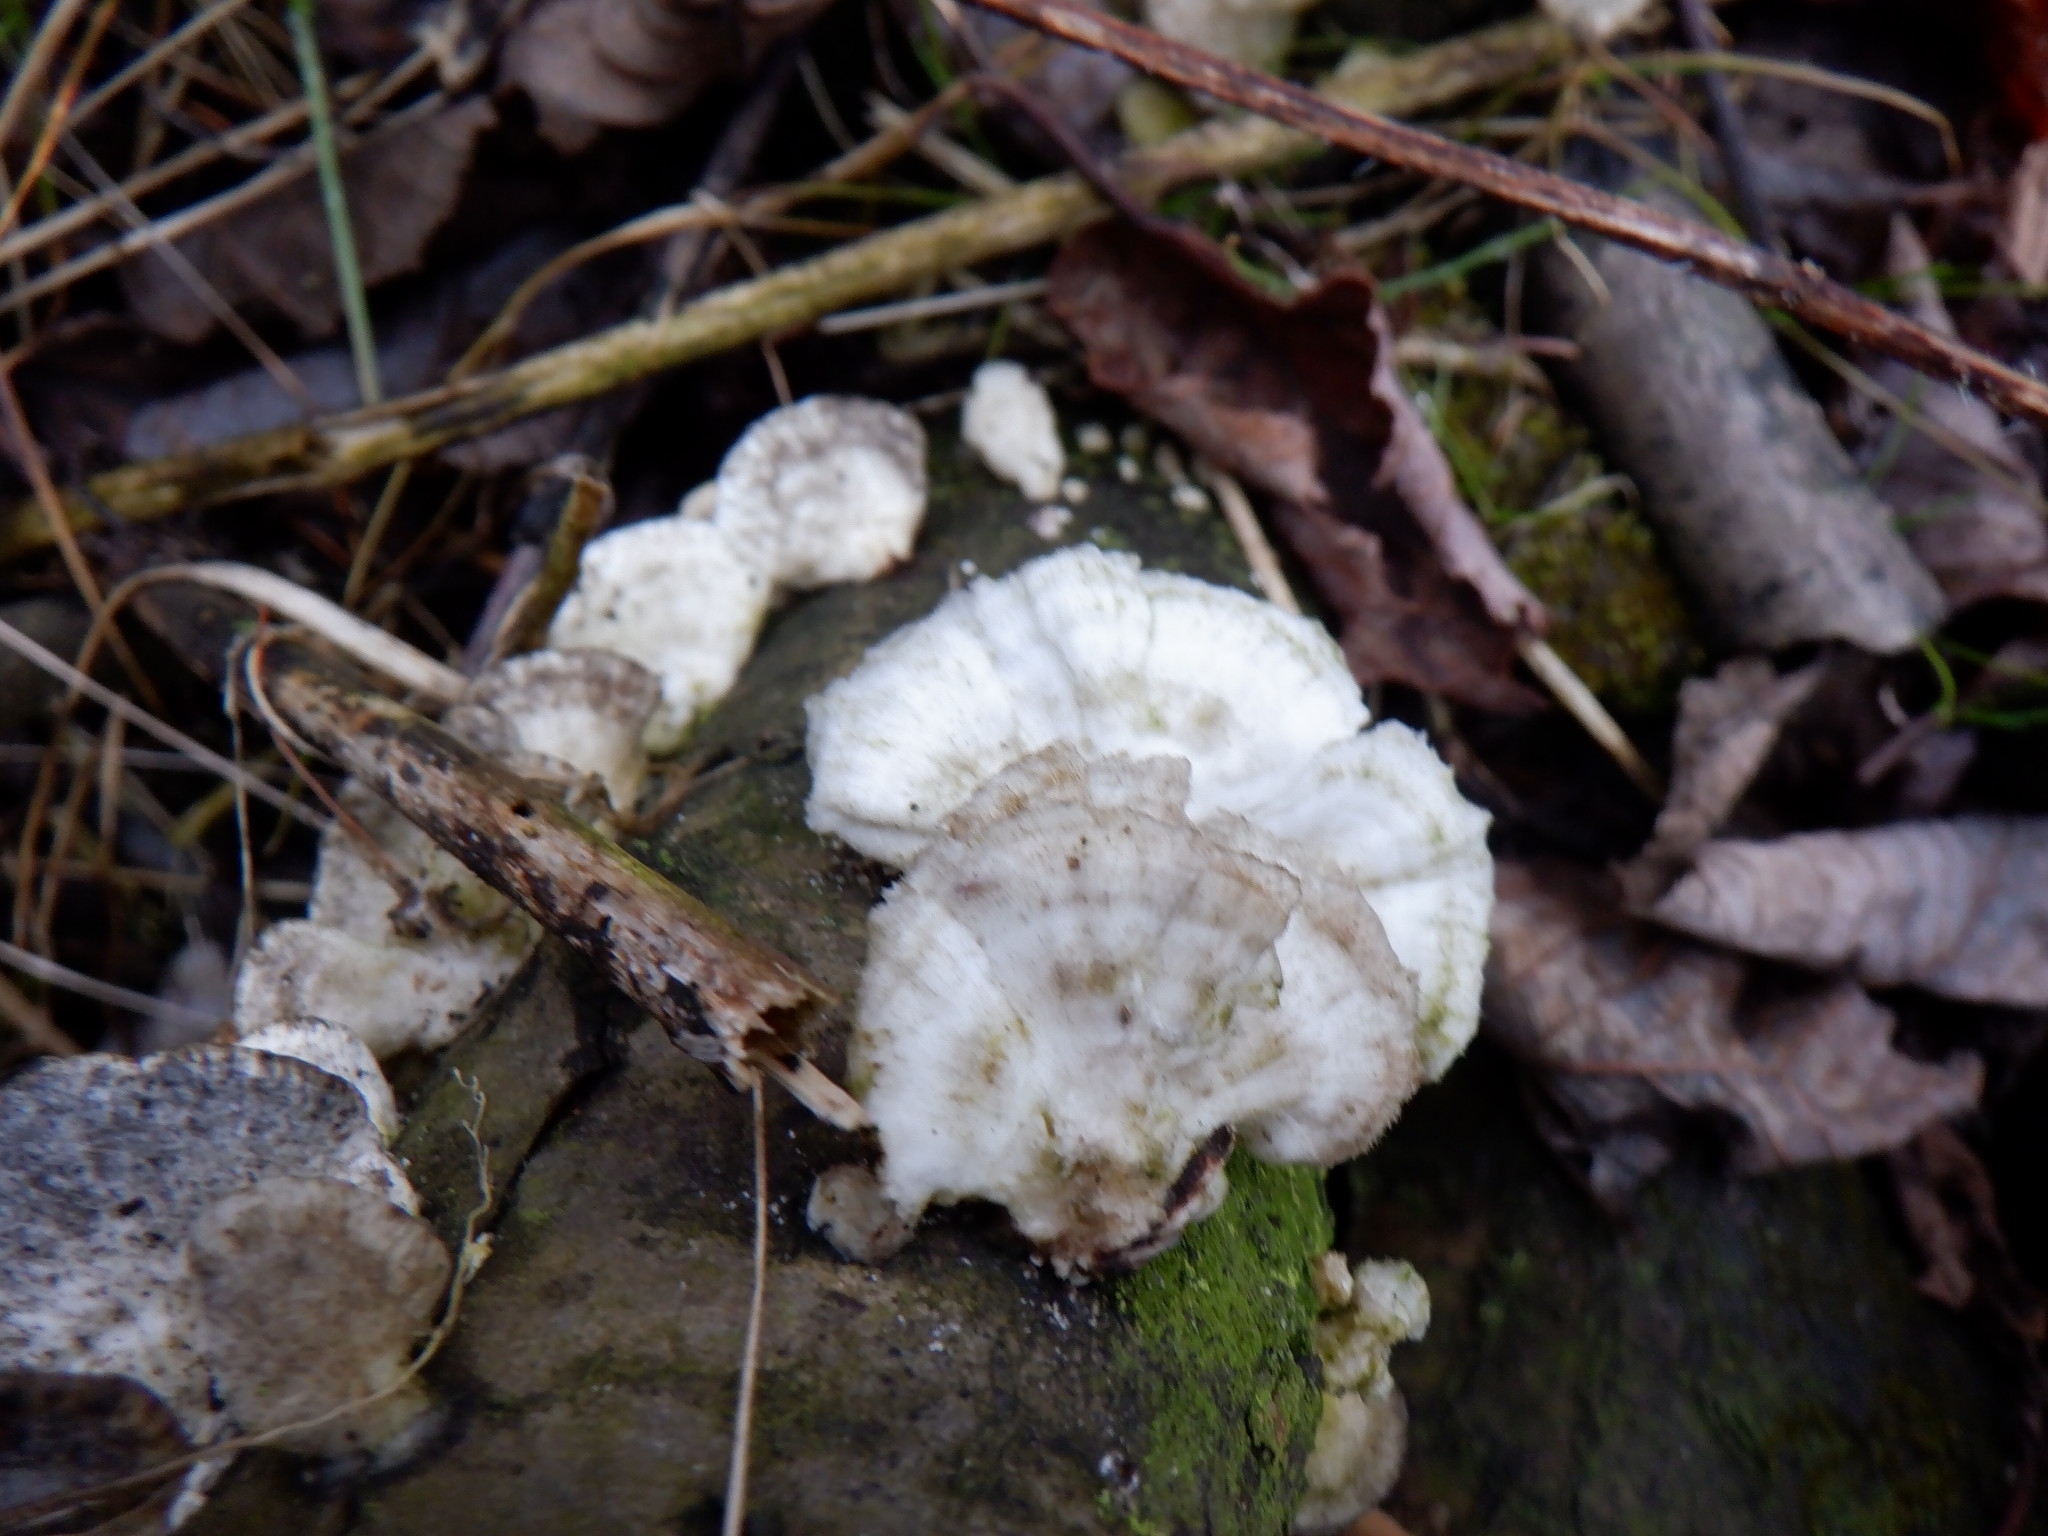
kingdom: Fungi
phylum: Basidiomycota
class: Agaricomycetes
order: Polyporales
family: Polyporaceae
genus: Trametes
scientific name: Trametes pubescens
